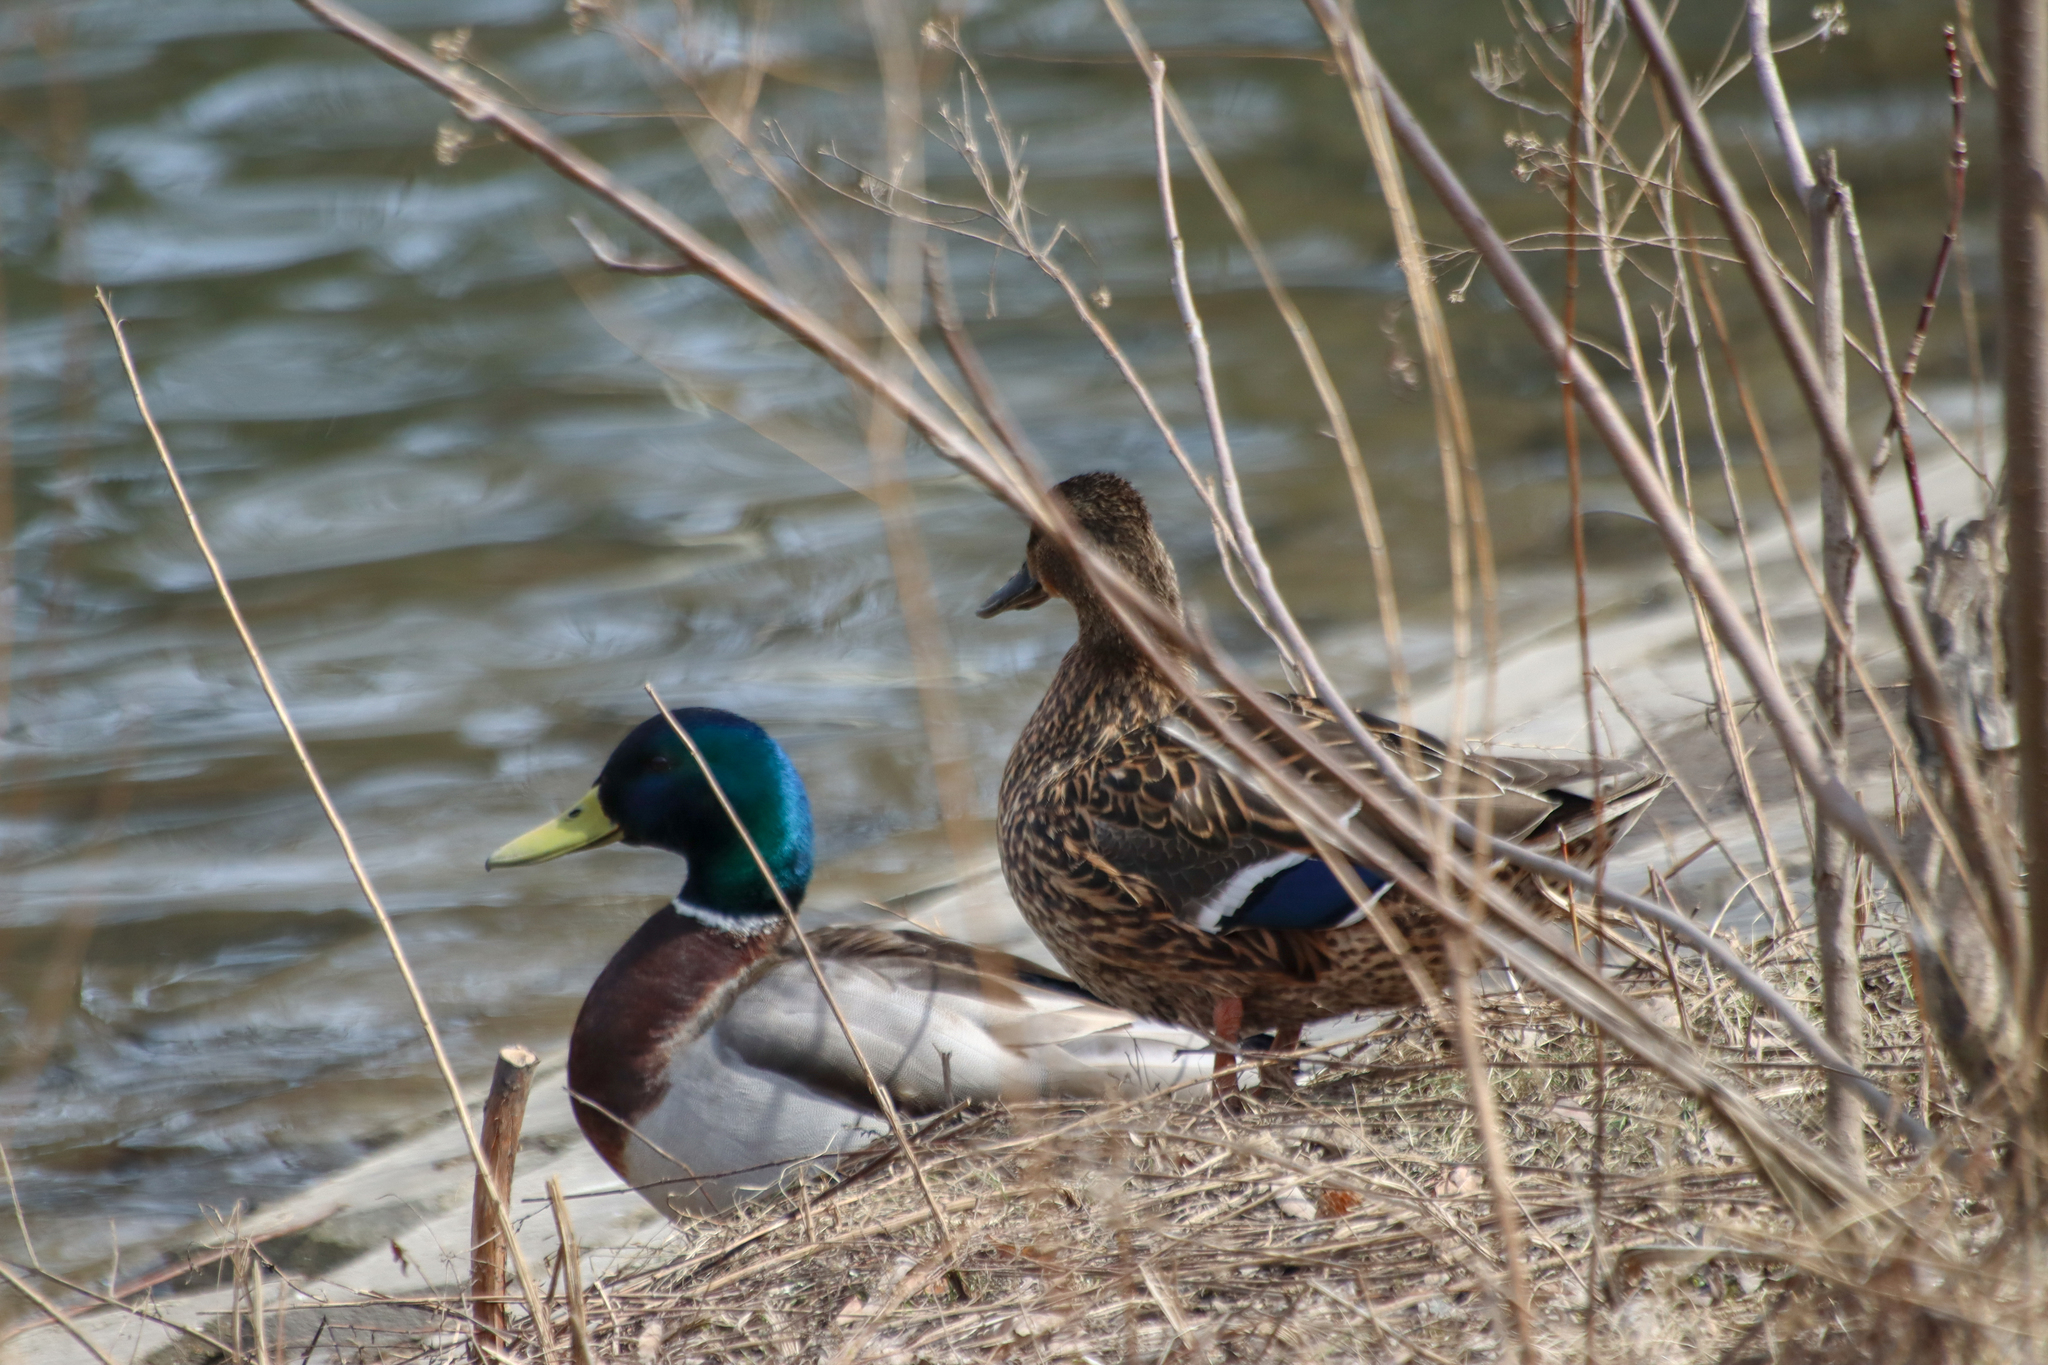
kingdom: Animalia
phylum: Chordata
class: Aves
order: Anseriformes
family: Anatidae
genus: Anas
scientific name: Anas platyrhynchos
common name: Mallard
